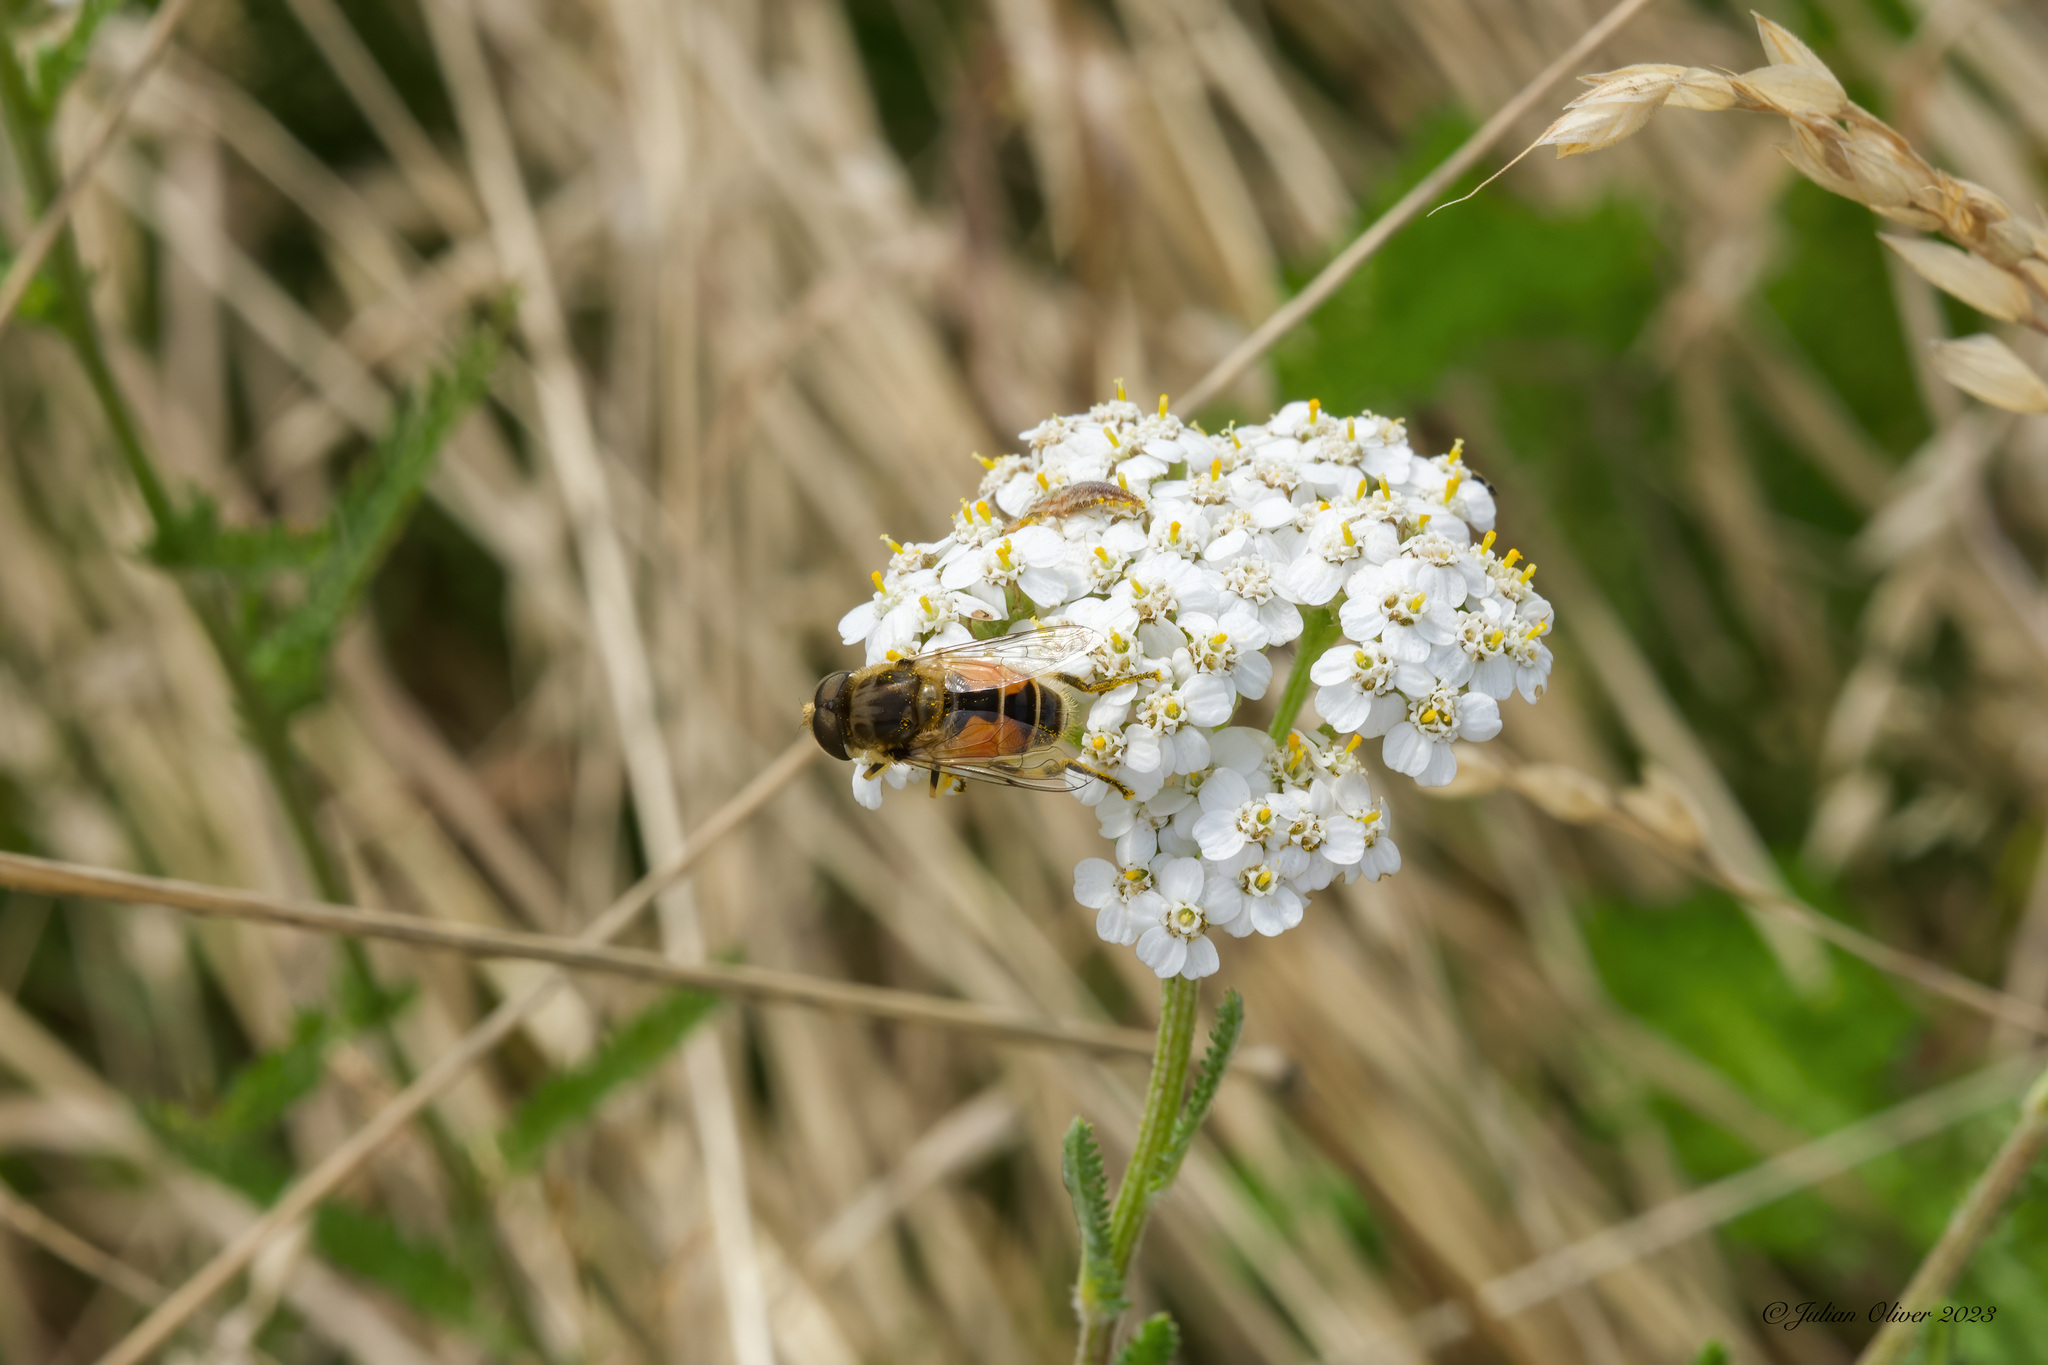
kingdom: Animalia
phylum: Arthropoda
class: Insecta
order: Diptera
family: Syrphidae
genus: Eoseristalis
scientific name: Eoseristalis
